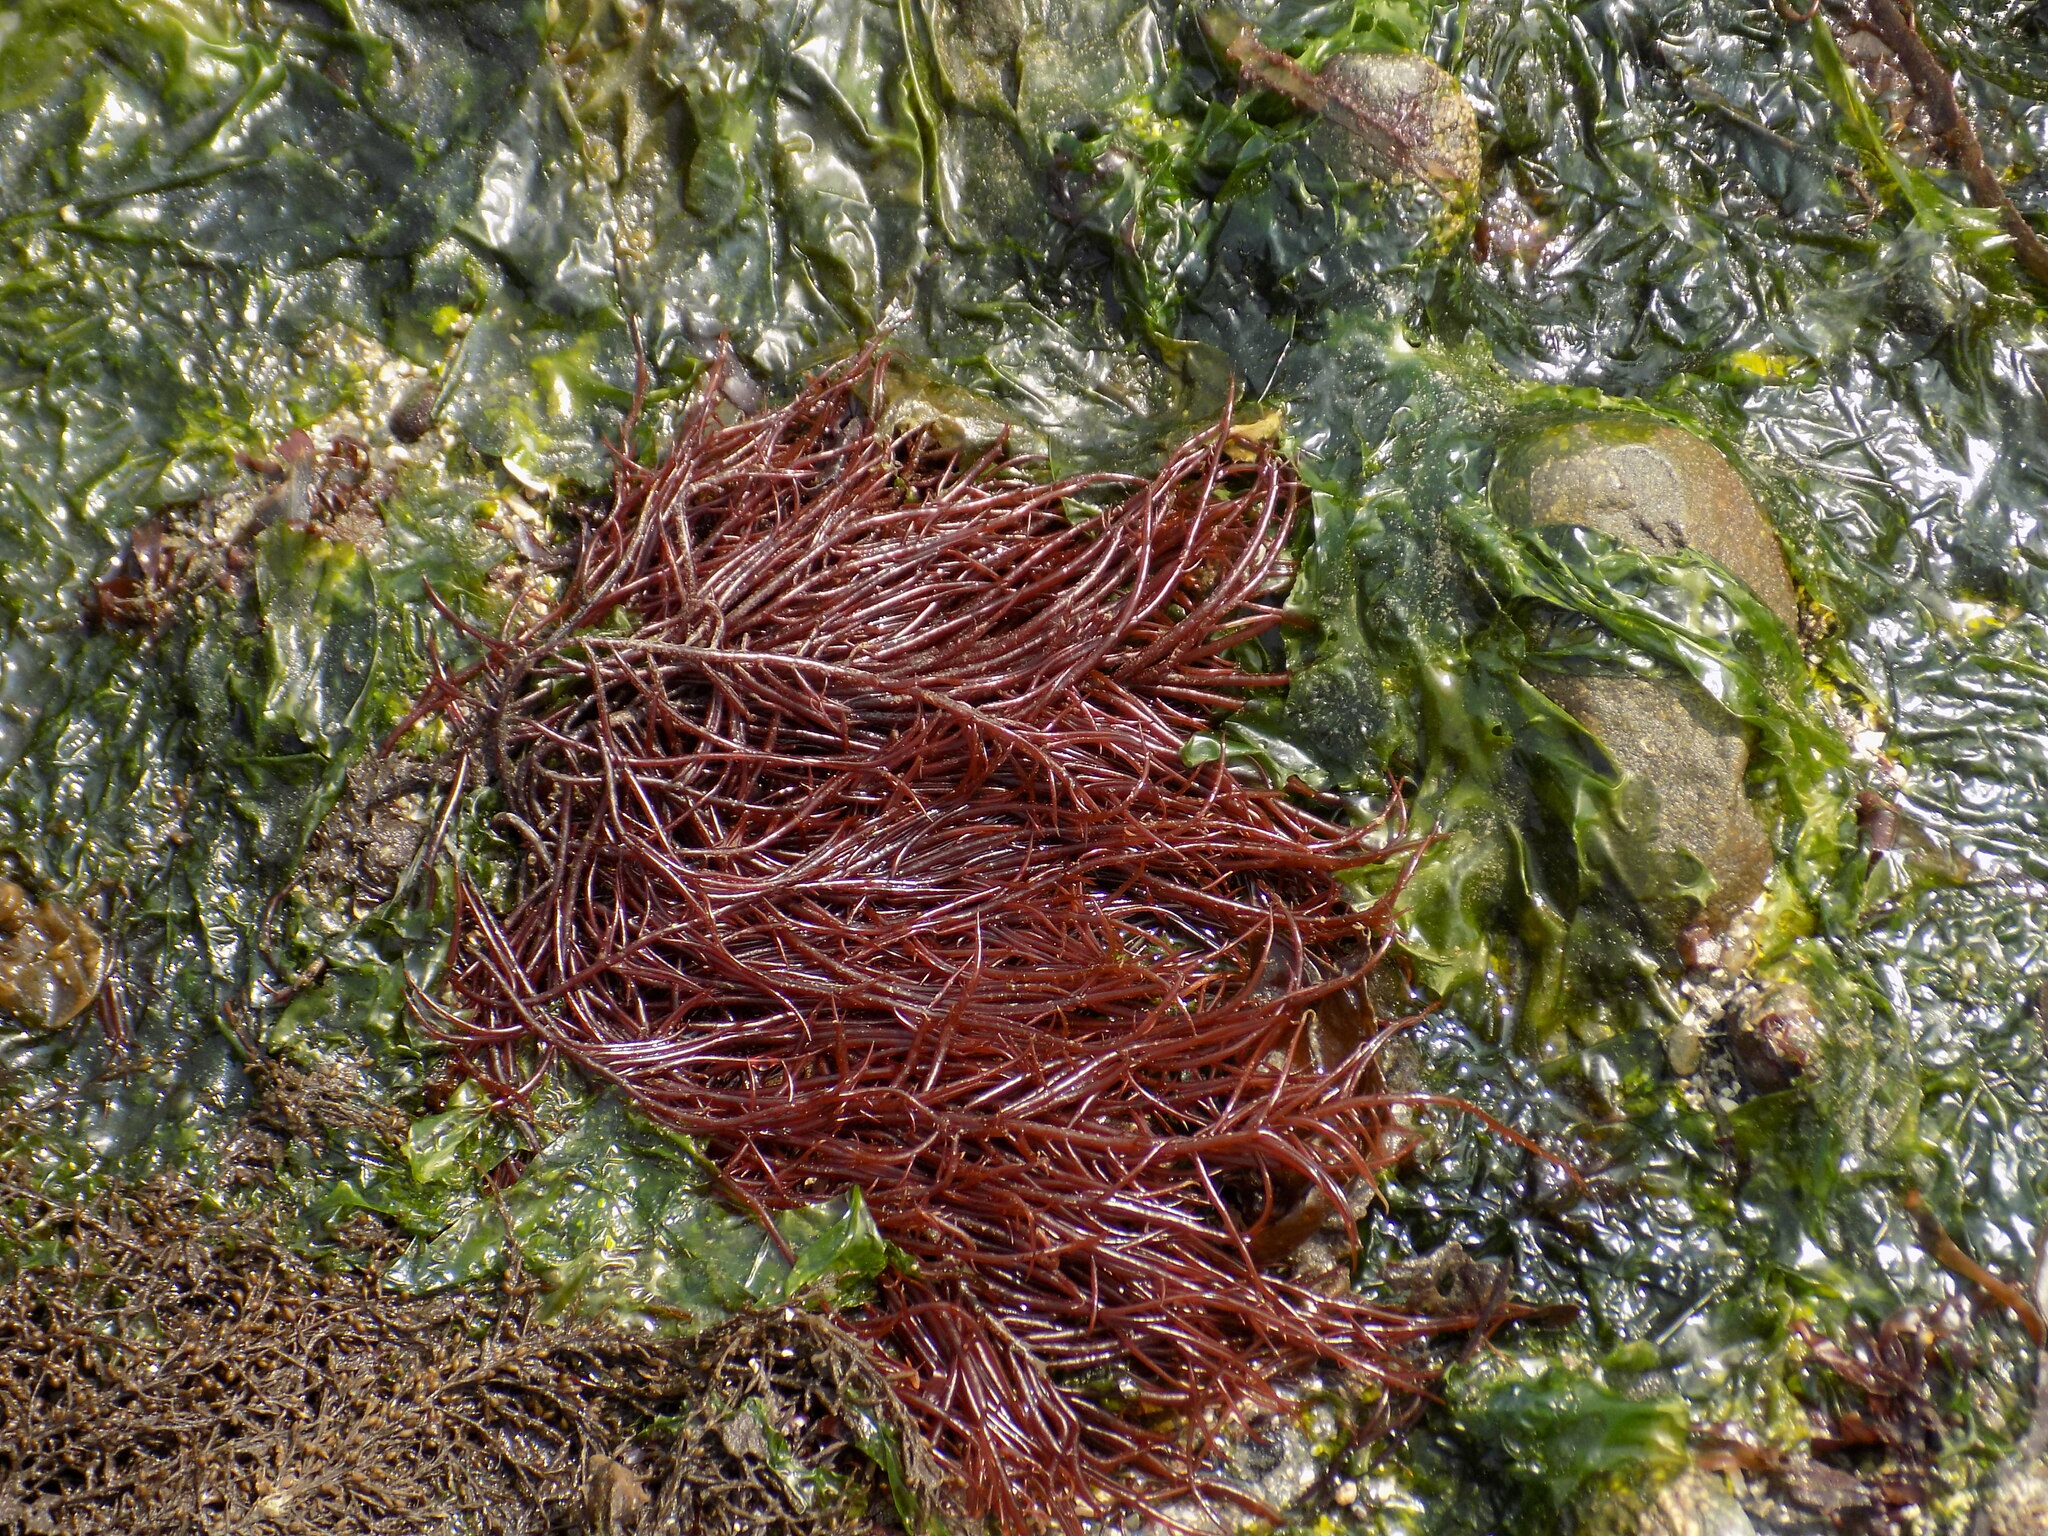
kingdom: Plantae
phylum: Rhodophyta
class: Florideophyceae
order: Gigartinales
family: Solieriaceae
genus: Sarcodiotheca
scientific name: Sarcodiotheca gaudichaudii
